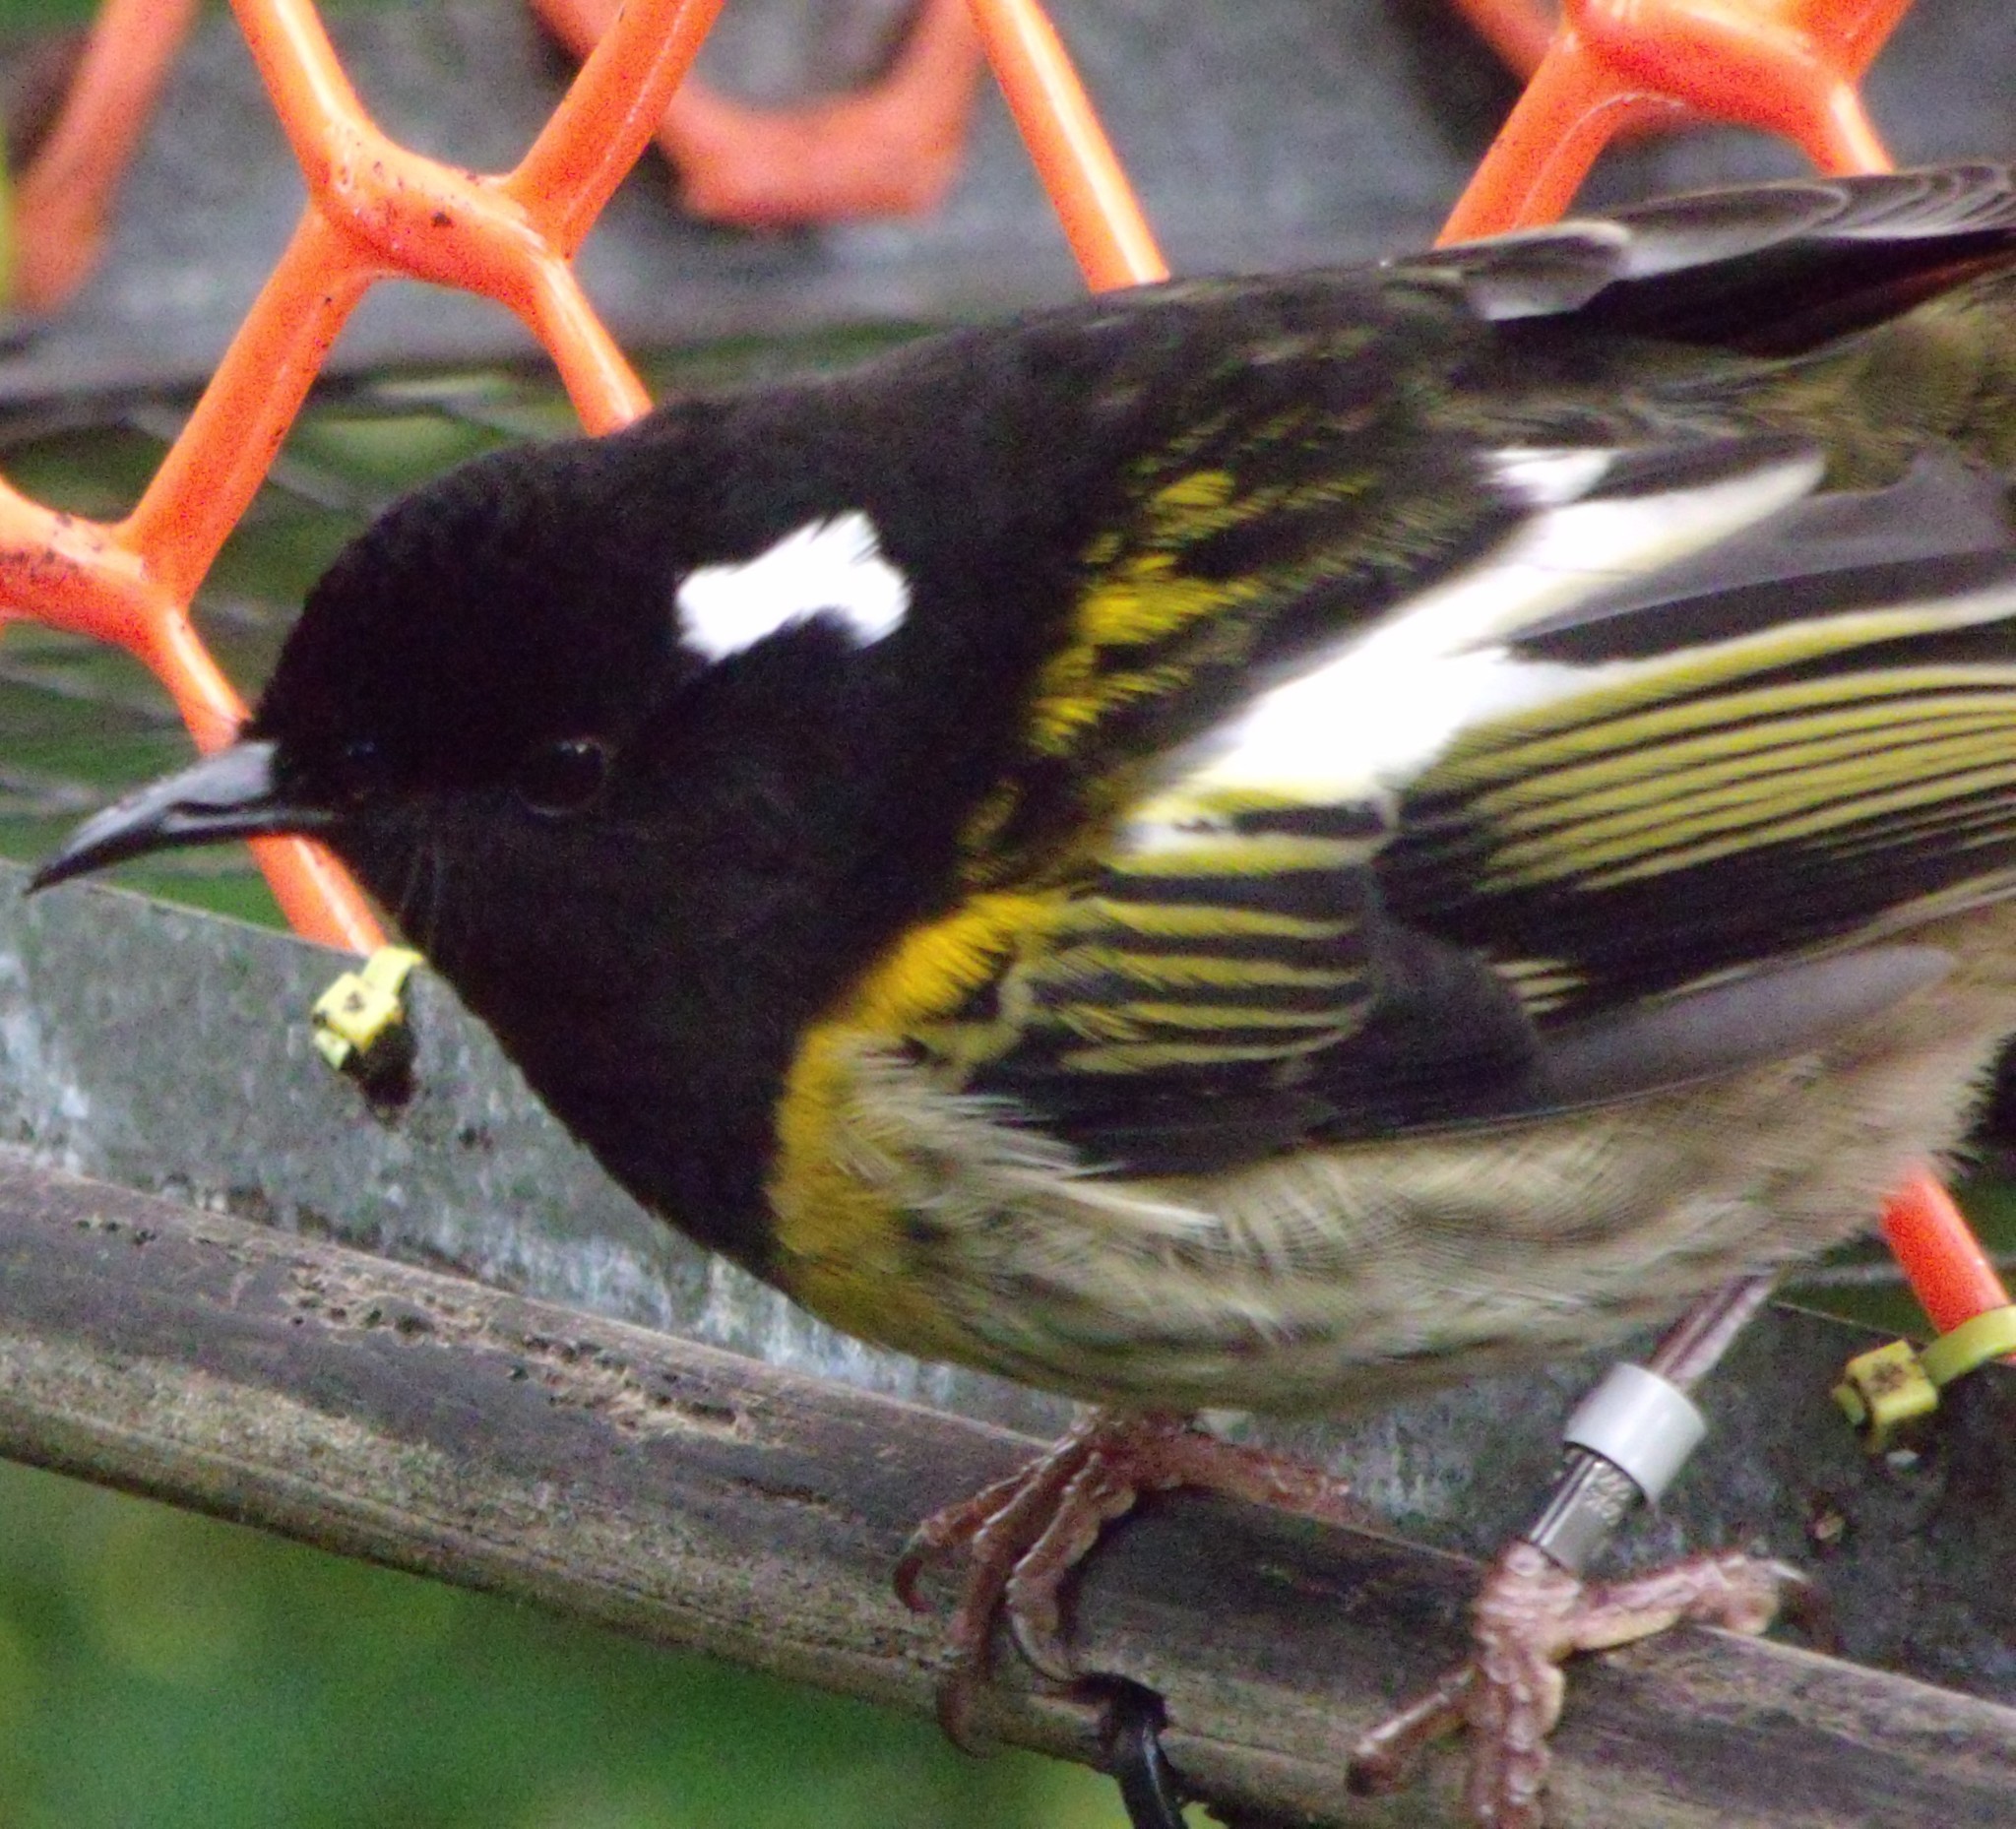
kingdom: Animalia
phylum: Chordata
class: Aves
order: Passeriformes
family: Notiomystidae
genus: Notiomystis
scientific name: Notiomystis cincta
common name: Stitchbird
